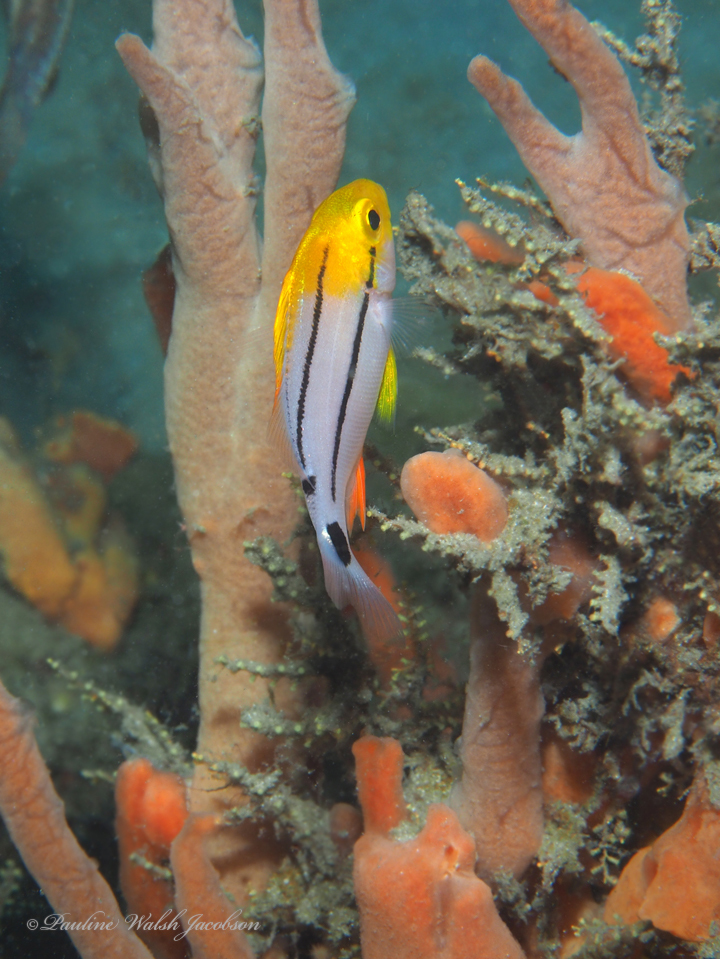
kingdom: Animalia
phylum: Chordata
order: Perciformes
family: Haemulidae
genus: Anisotremus
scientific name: Anisotremus virginicus
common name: Porkfish
